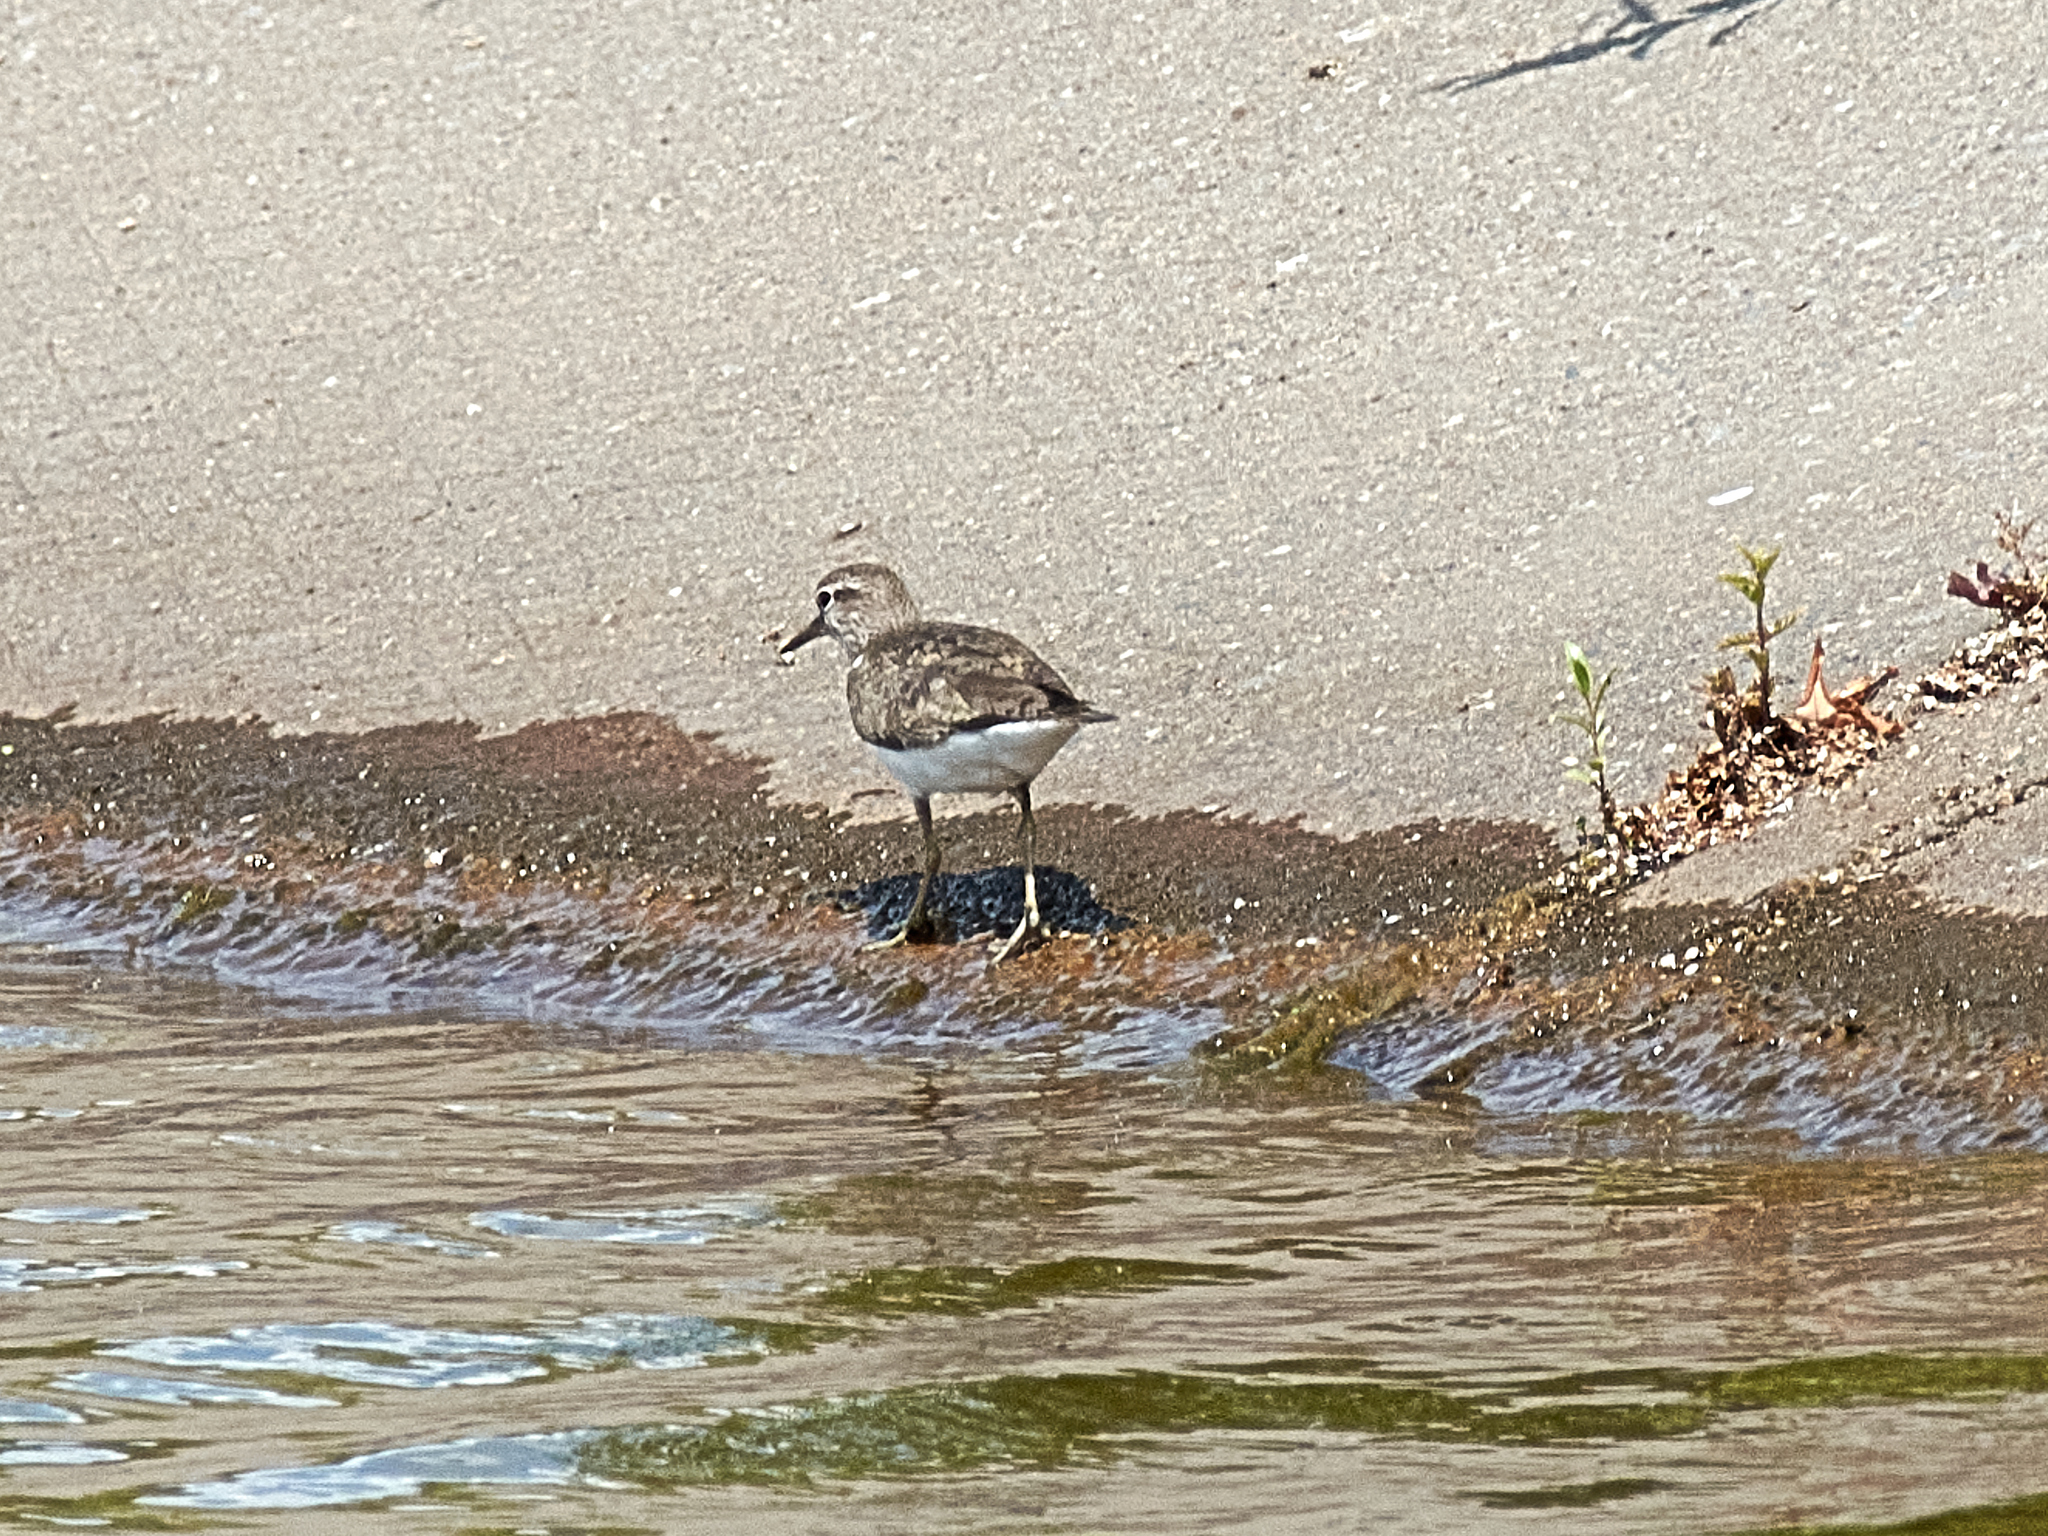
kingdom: Animalia
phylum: Chordata
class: Aves
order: Charadriiformes
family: Scolopacidae
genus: Actitis
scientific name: Actitis hypoleucos
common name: Common sandpiper
